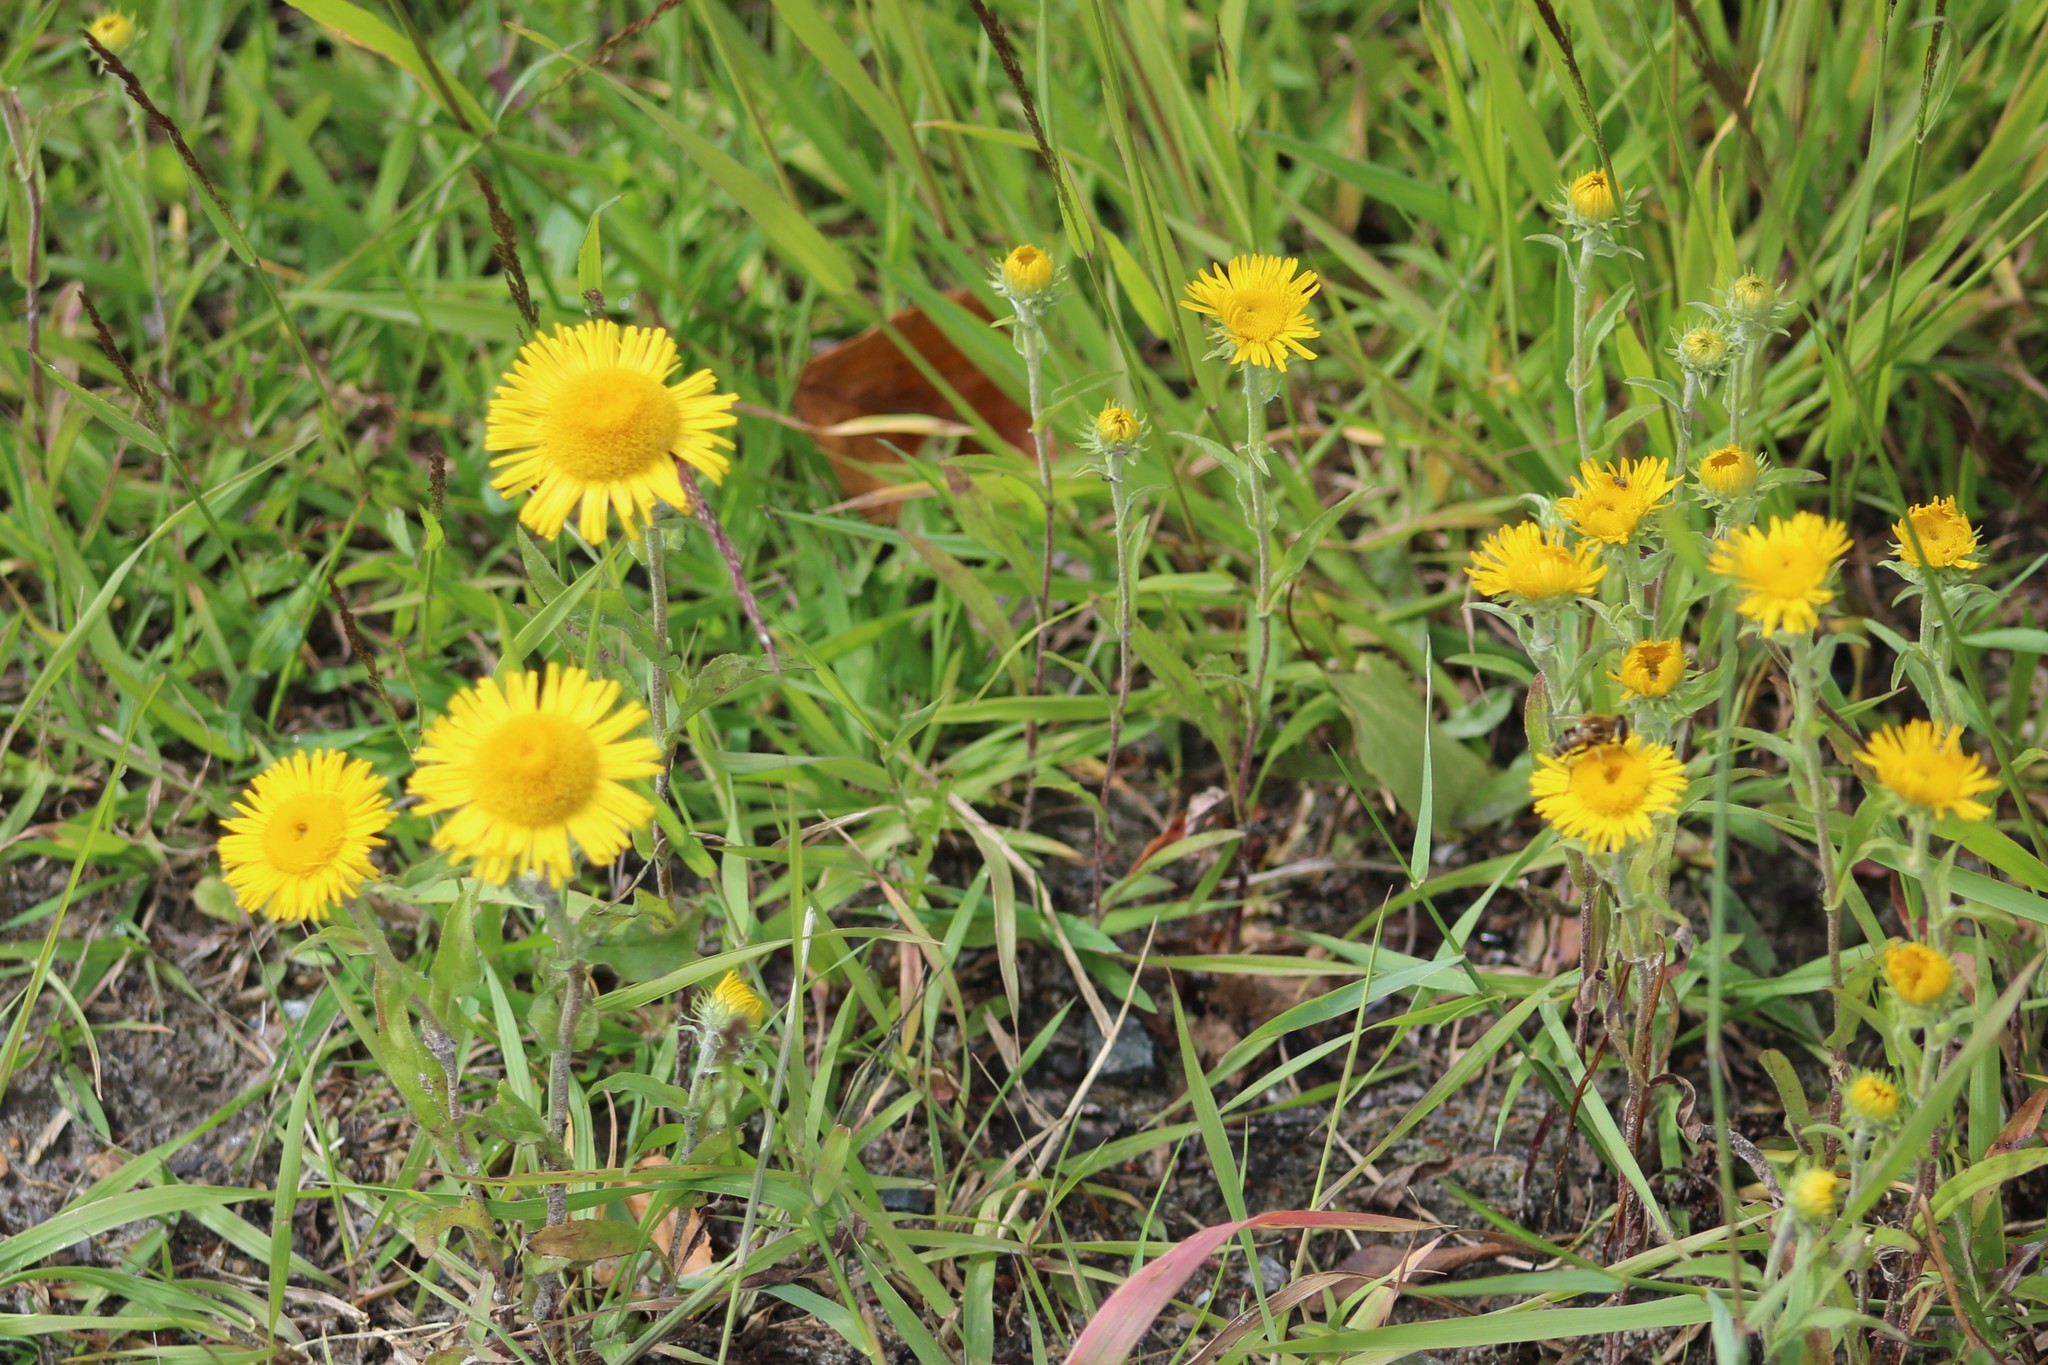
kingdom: Plantae
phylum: Tracheophyta
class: Magnoliopsida
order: Asterales
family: Asteraceae
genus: Pentanema
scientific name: Pentanema britannicum
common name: British elecampane
